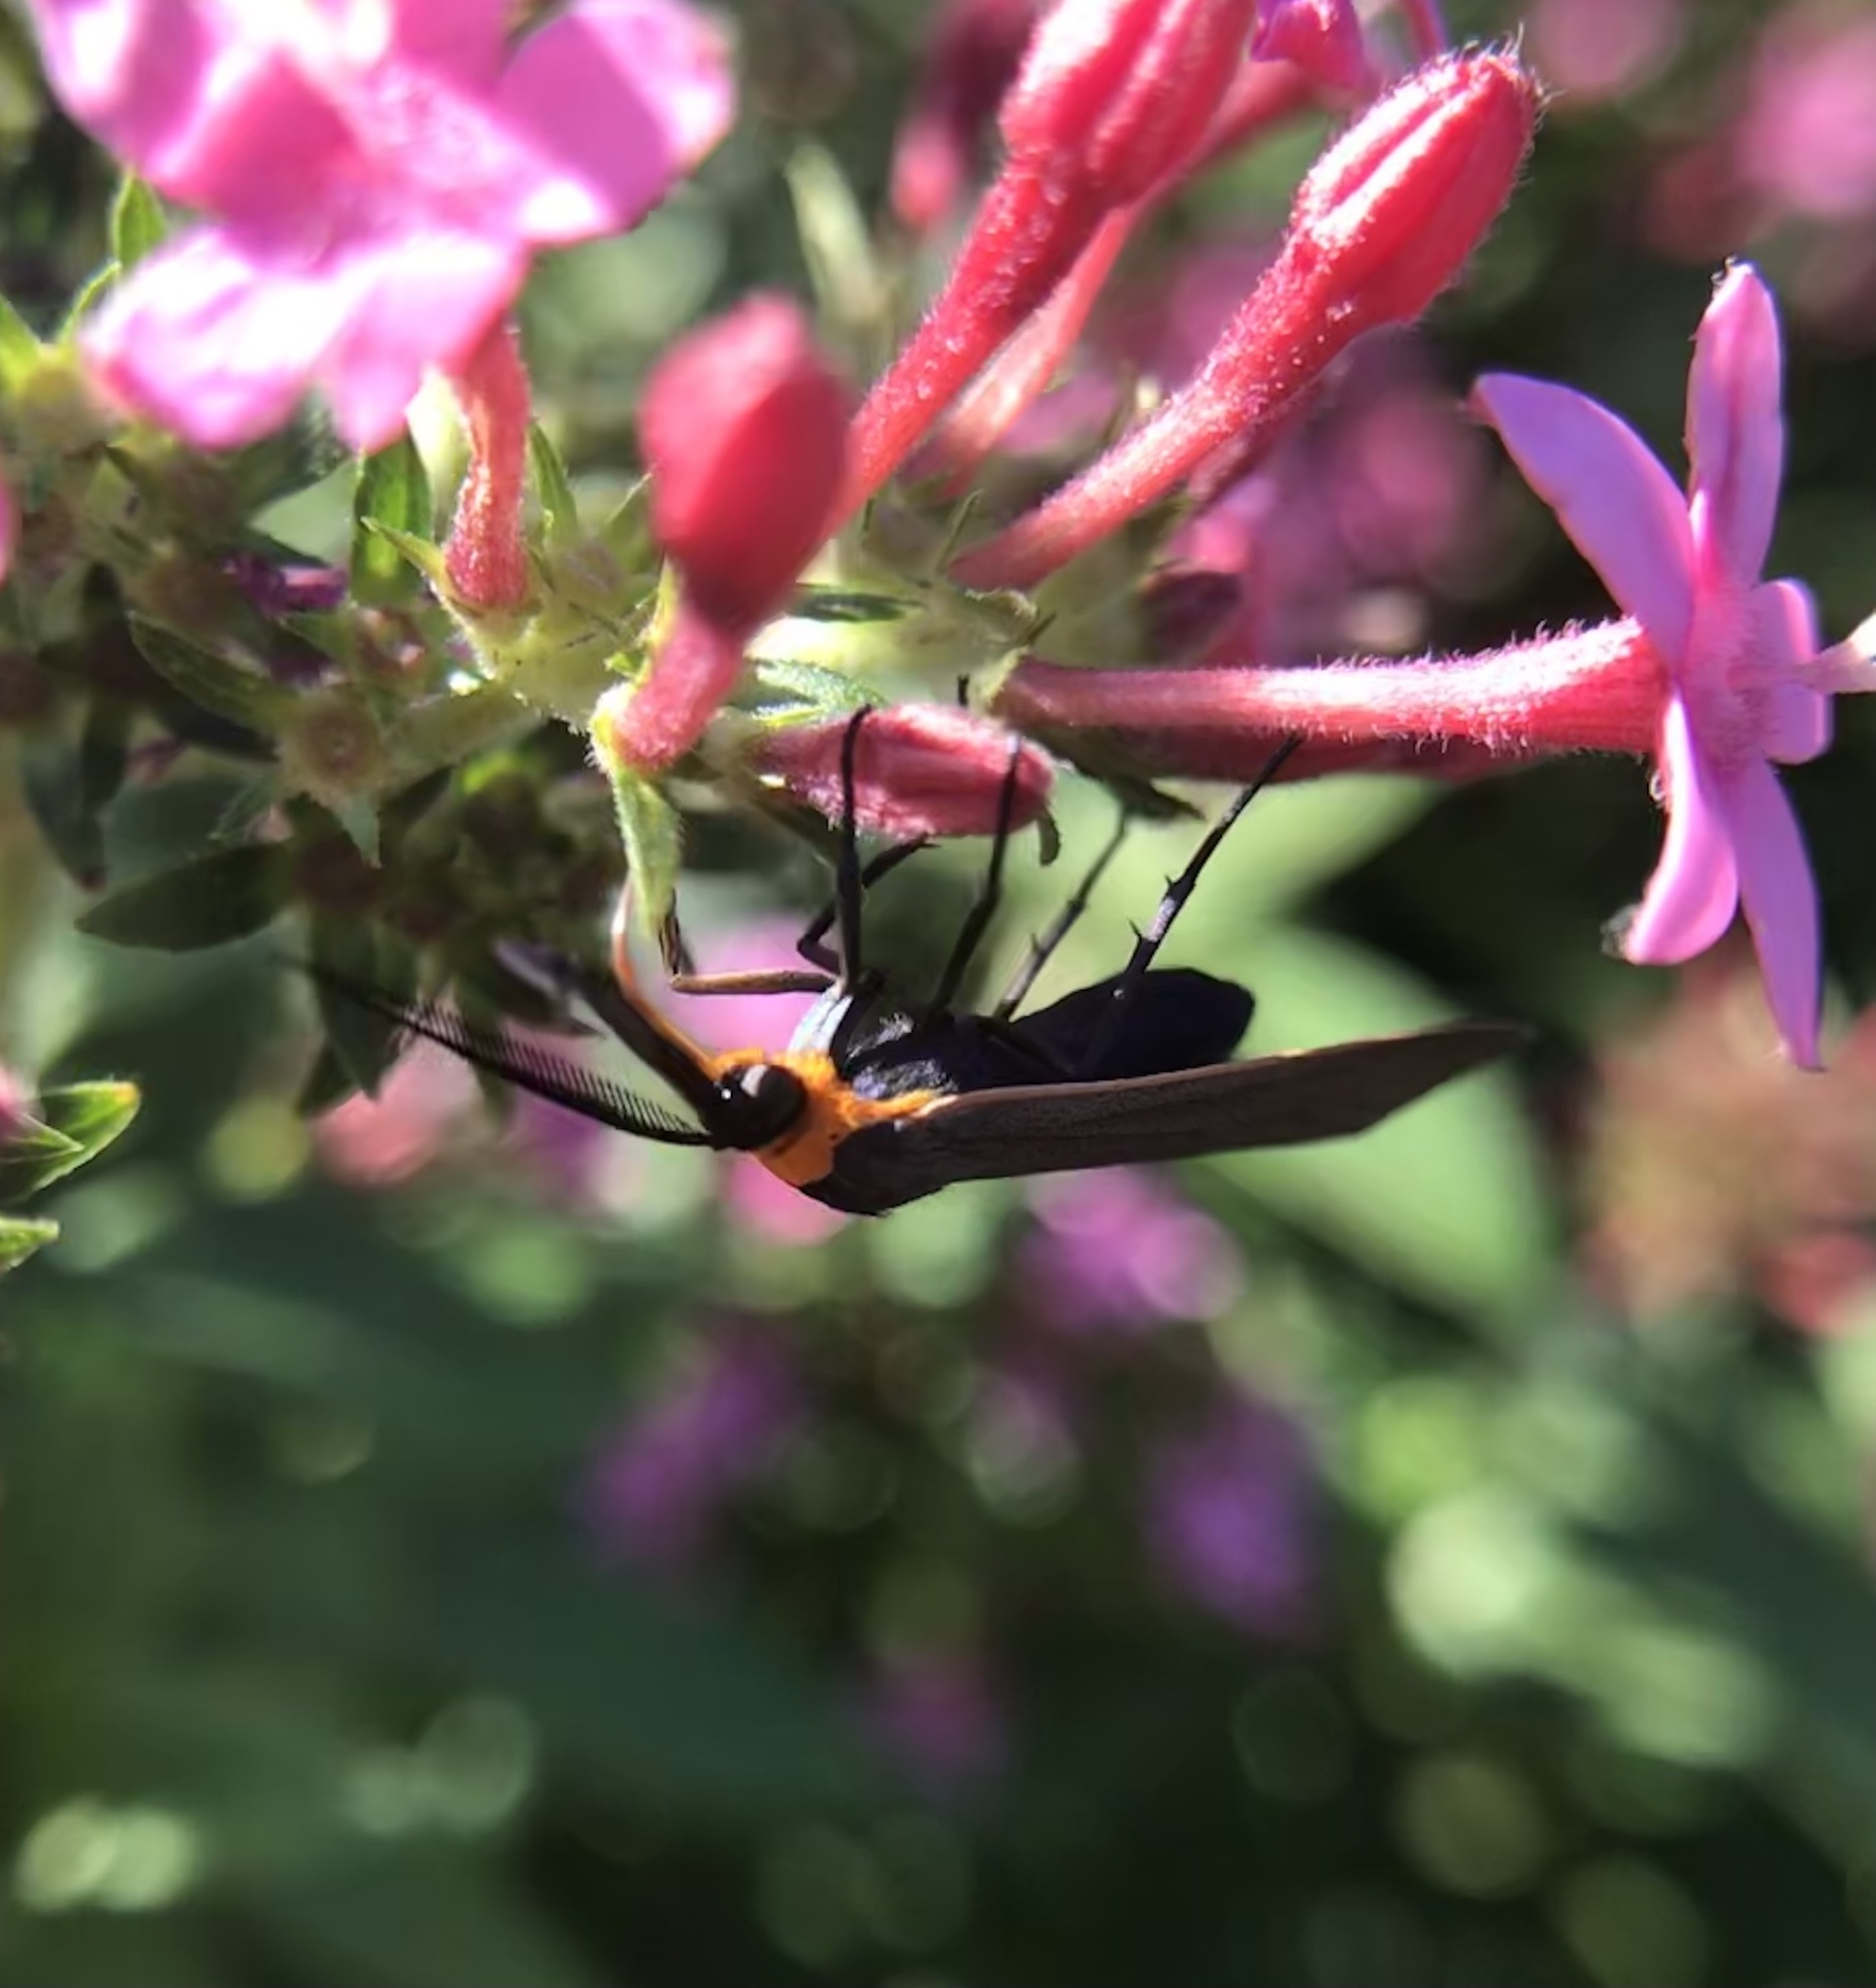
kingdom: Animalia
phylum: Arthropoda
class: Insecta
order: Lepidoptera
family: Erebidae
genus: Cisseps
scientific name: Cisseps fulvicollis
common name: Yellow-collared scape moth
